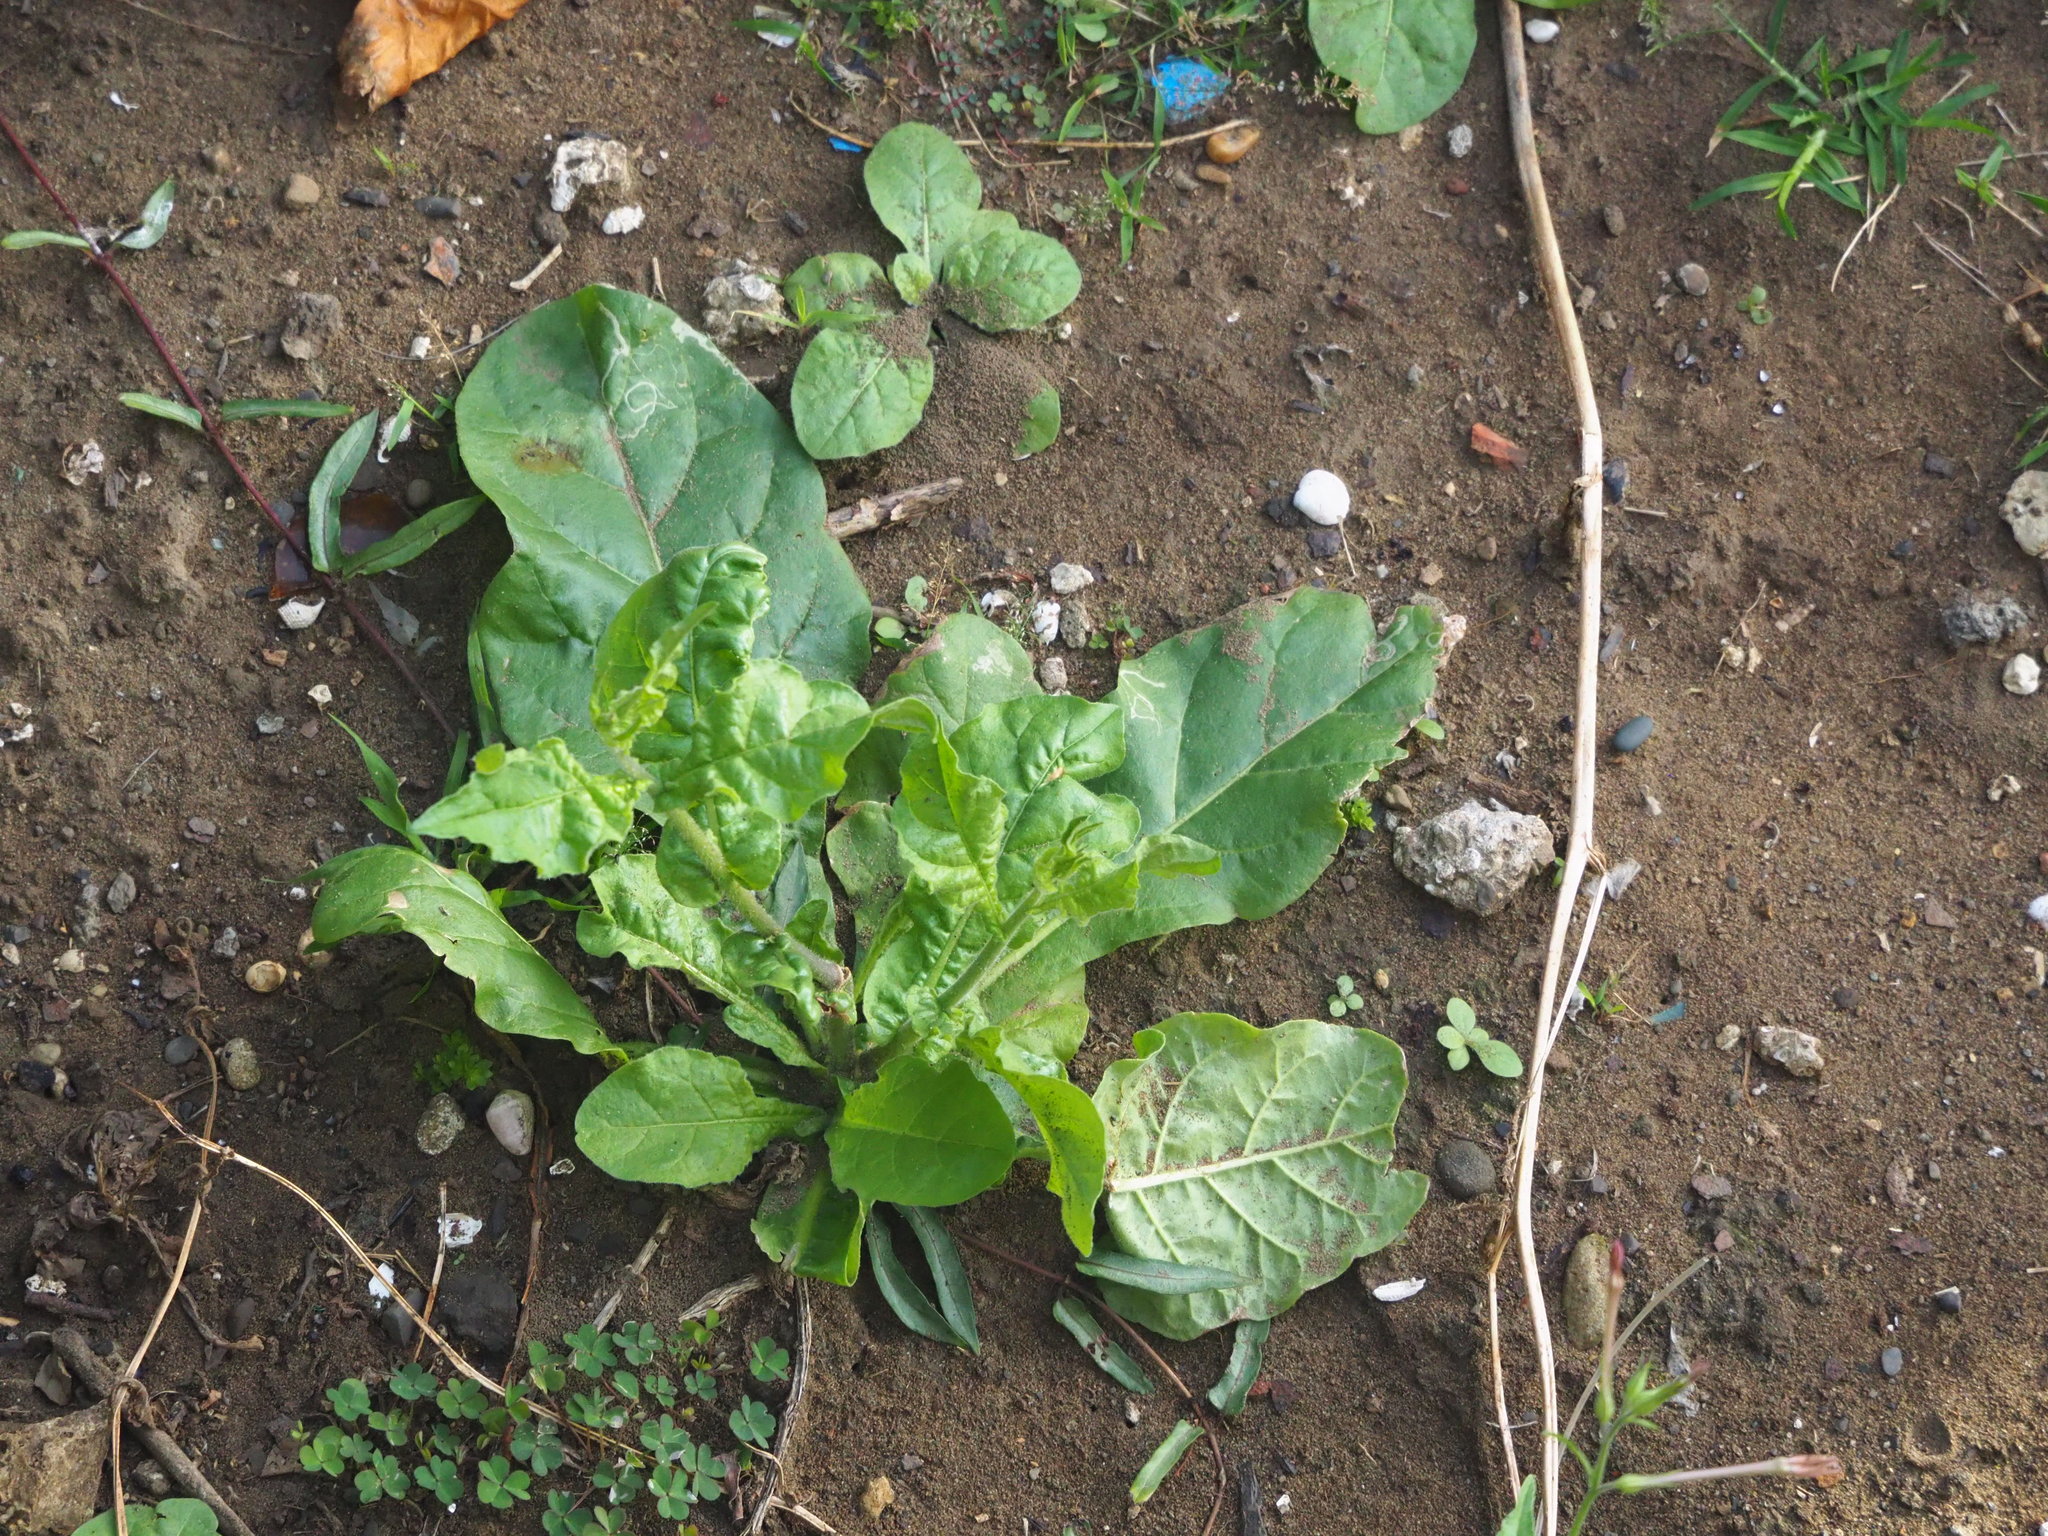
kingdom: Plantae
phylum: Tracheophyta
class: Magnoliopsida
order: Solanales
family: Solanaceae
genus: Nicotiana
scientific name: Nicotiana plumbaginifolia
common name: Tex-mex tobacco
